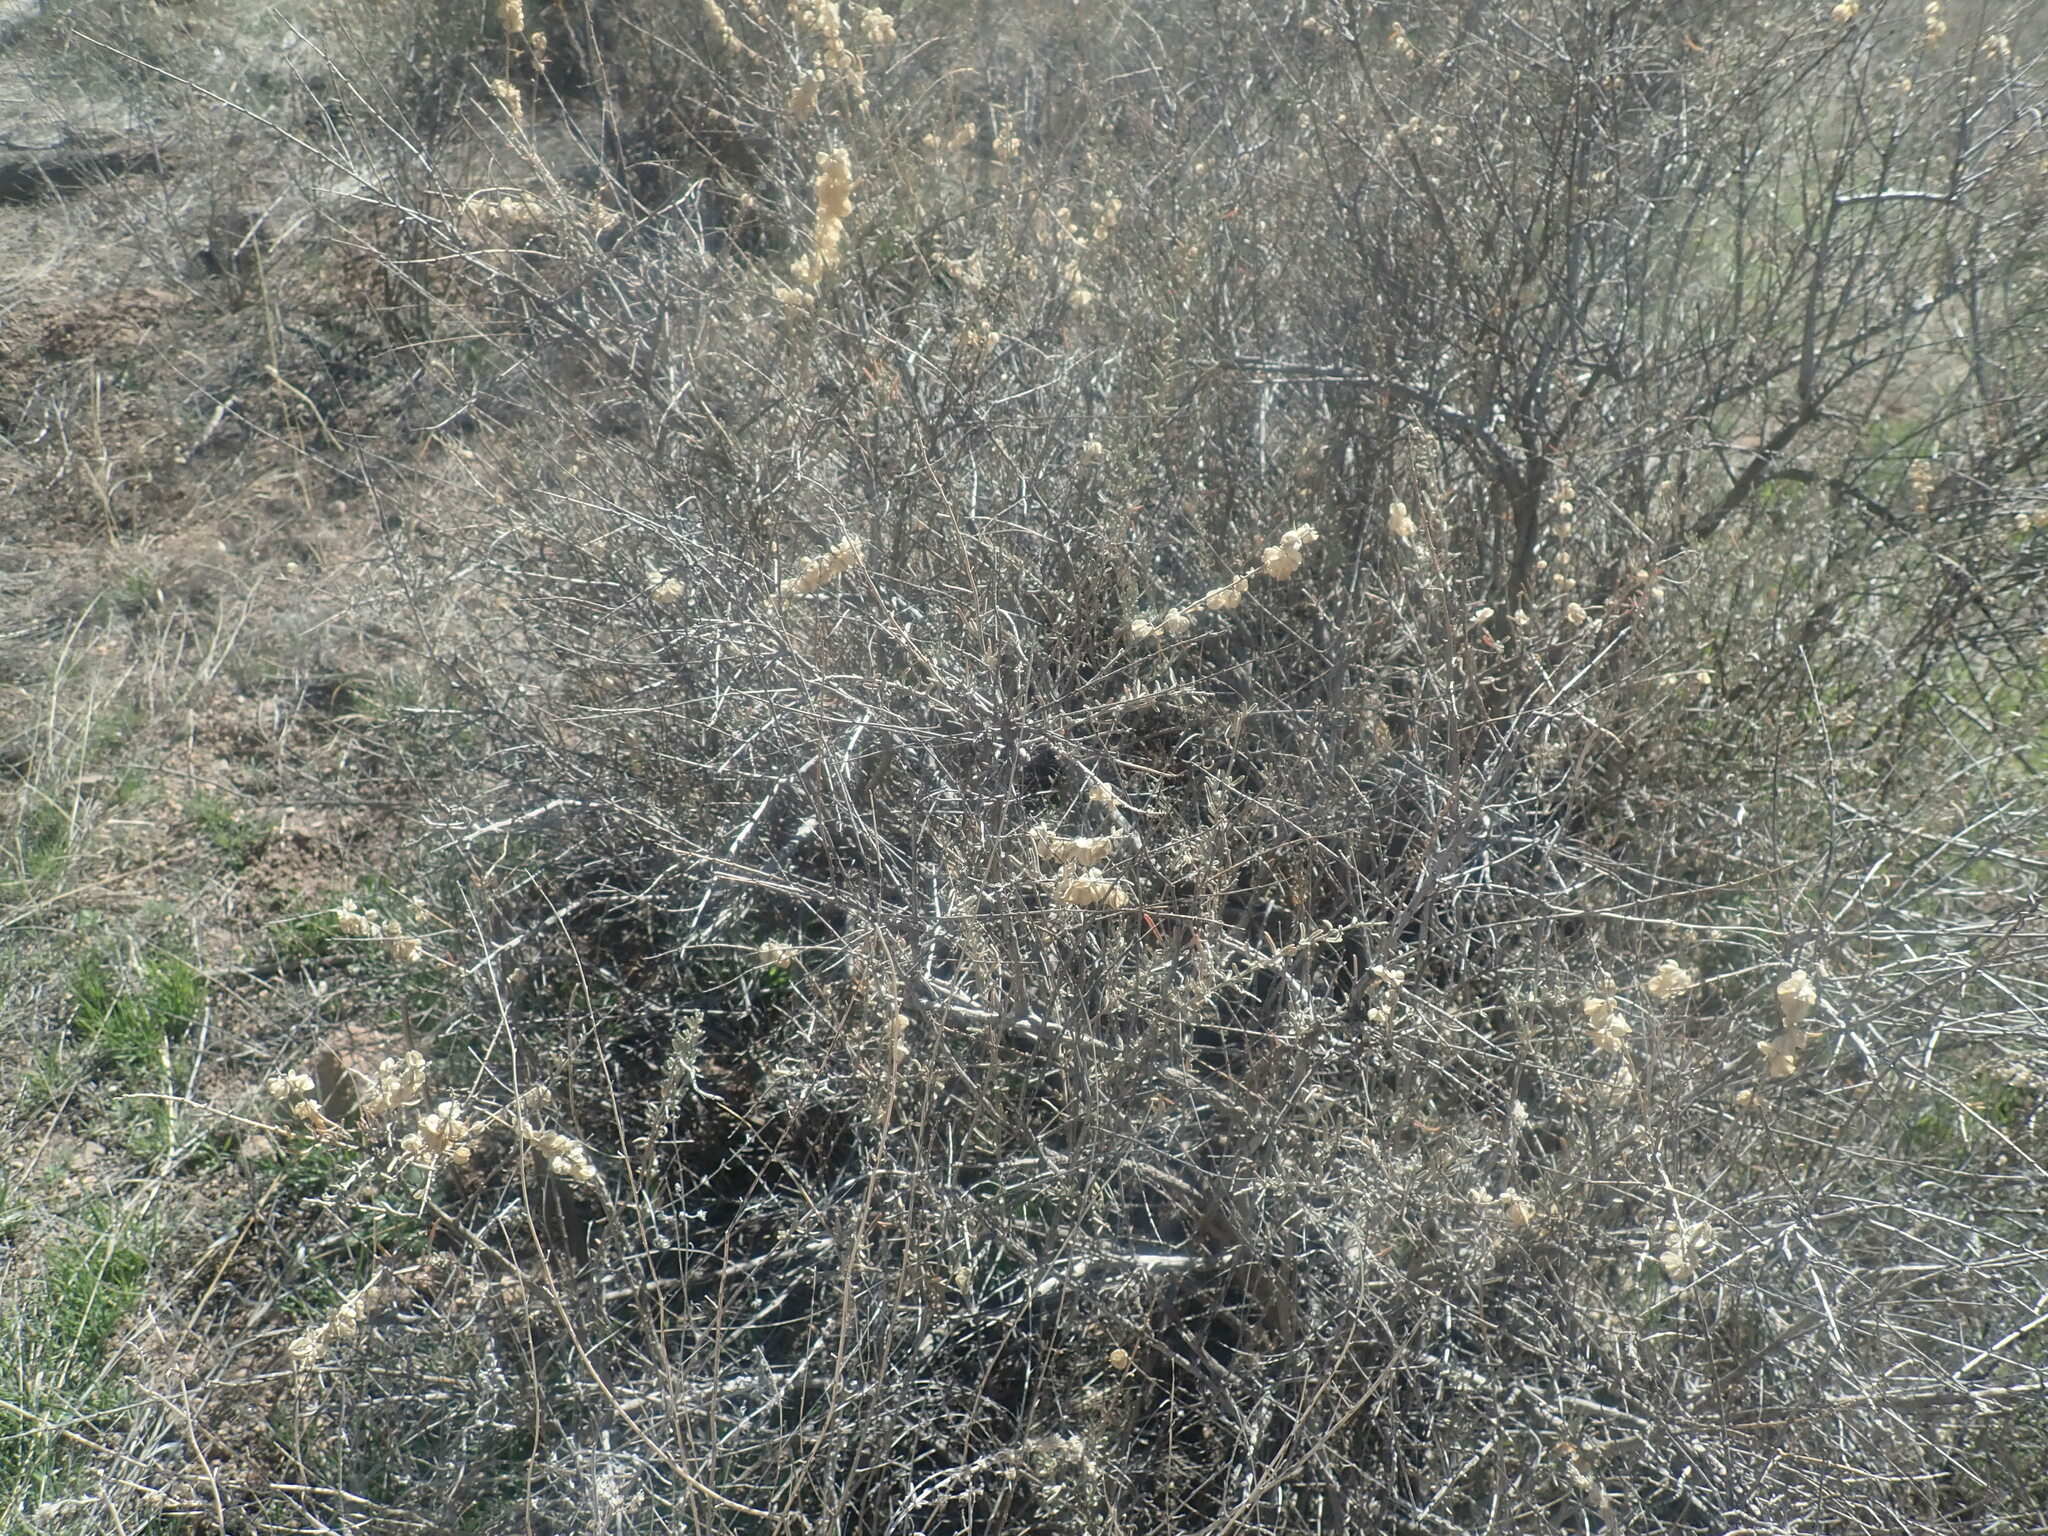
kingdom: Plantae
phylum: Tracheophyta
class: Magnoliopsida
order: Caryophyllales
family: Amaranthaceae
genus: Atriplex
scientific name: Atriplex canescens
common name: Four-wing saltbush
